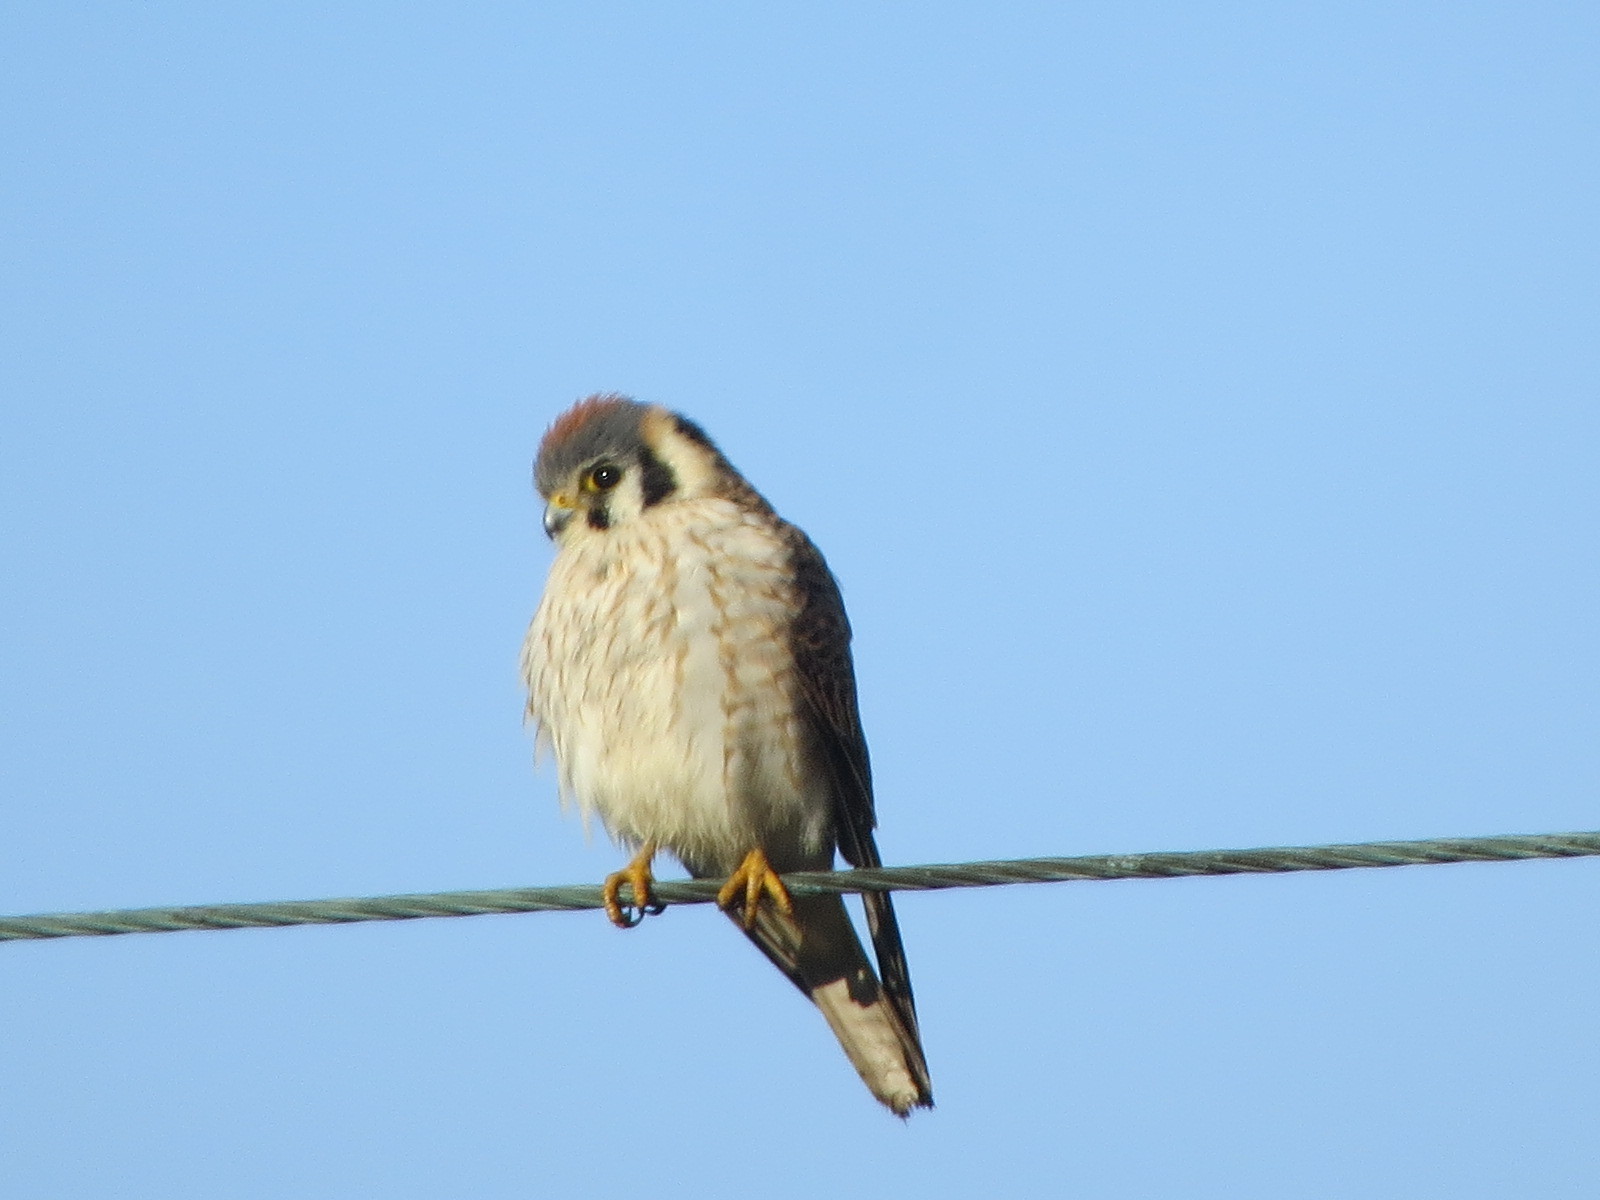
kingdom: Animalia
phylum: Chordata
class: Aves
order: Falconiformes
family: Falconidae
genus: Falco
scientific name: Falco sparverius
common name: American kestrel
